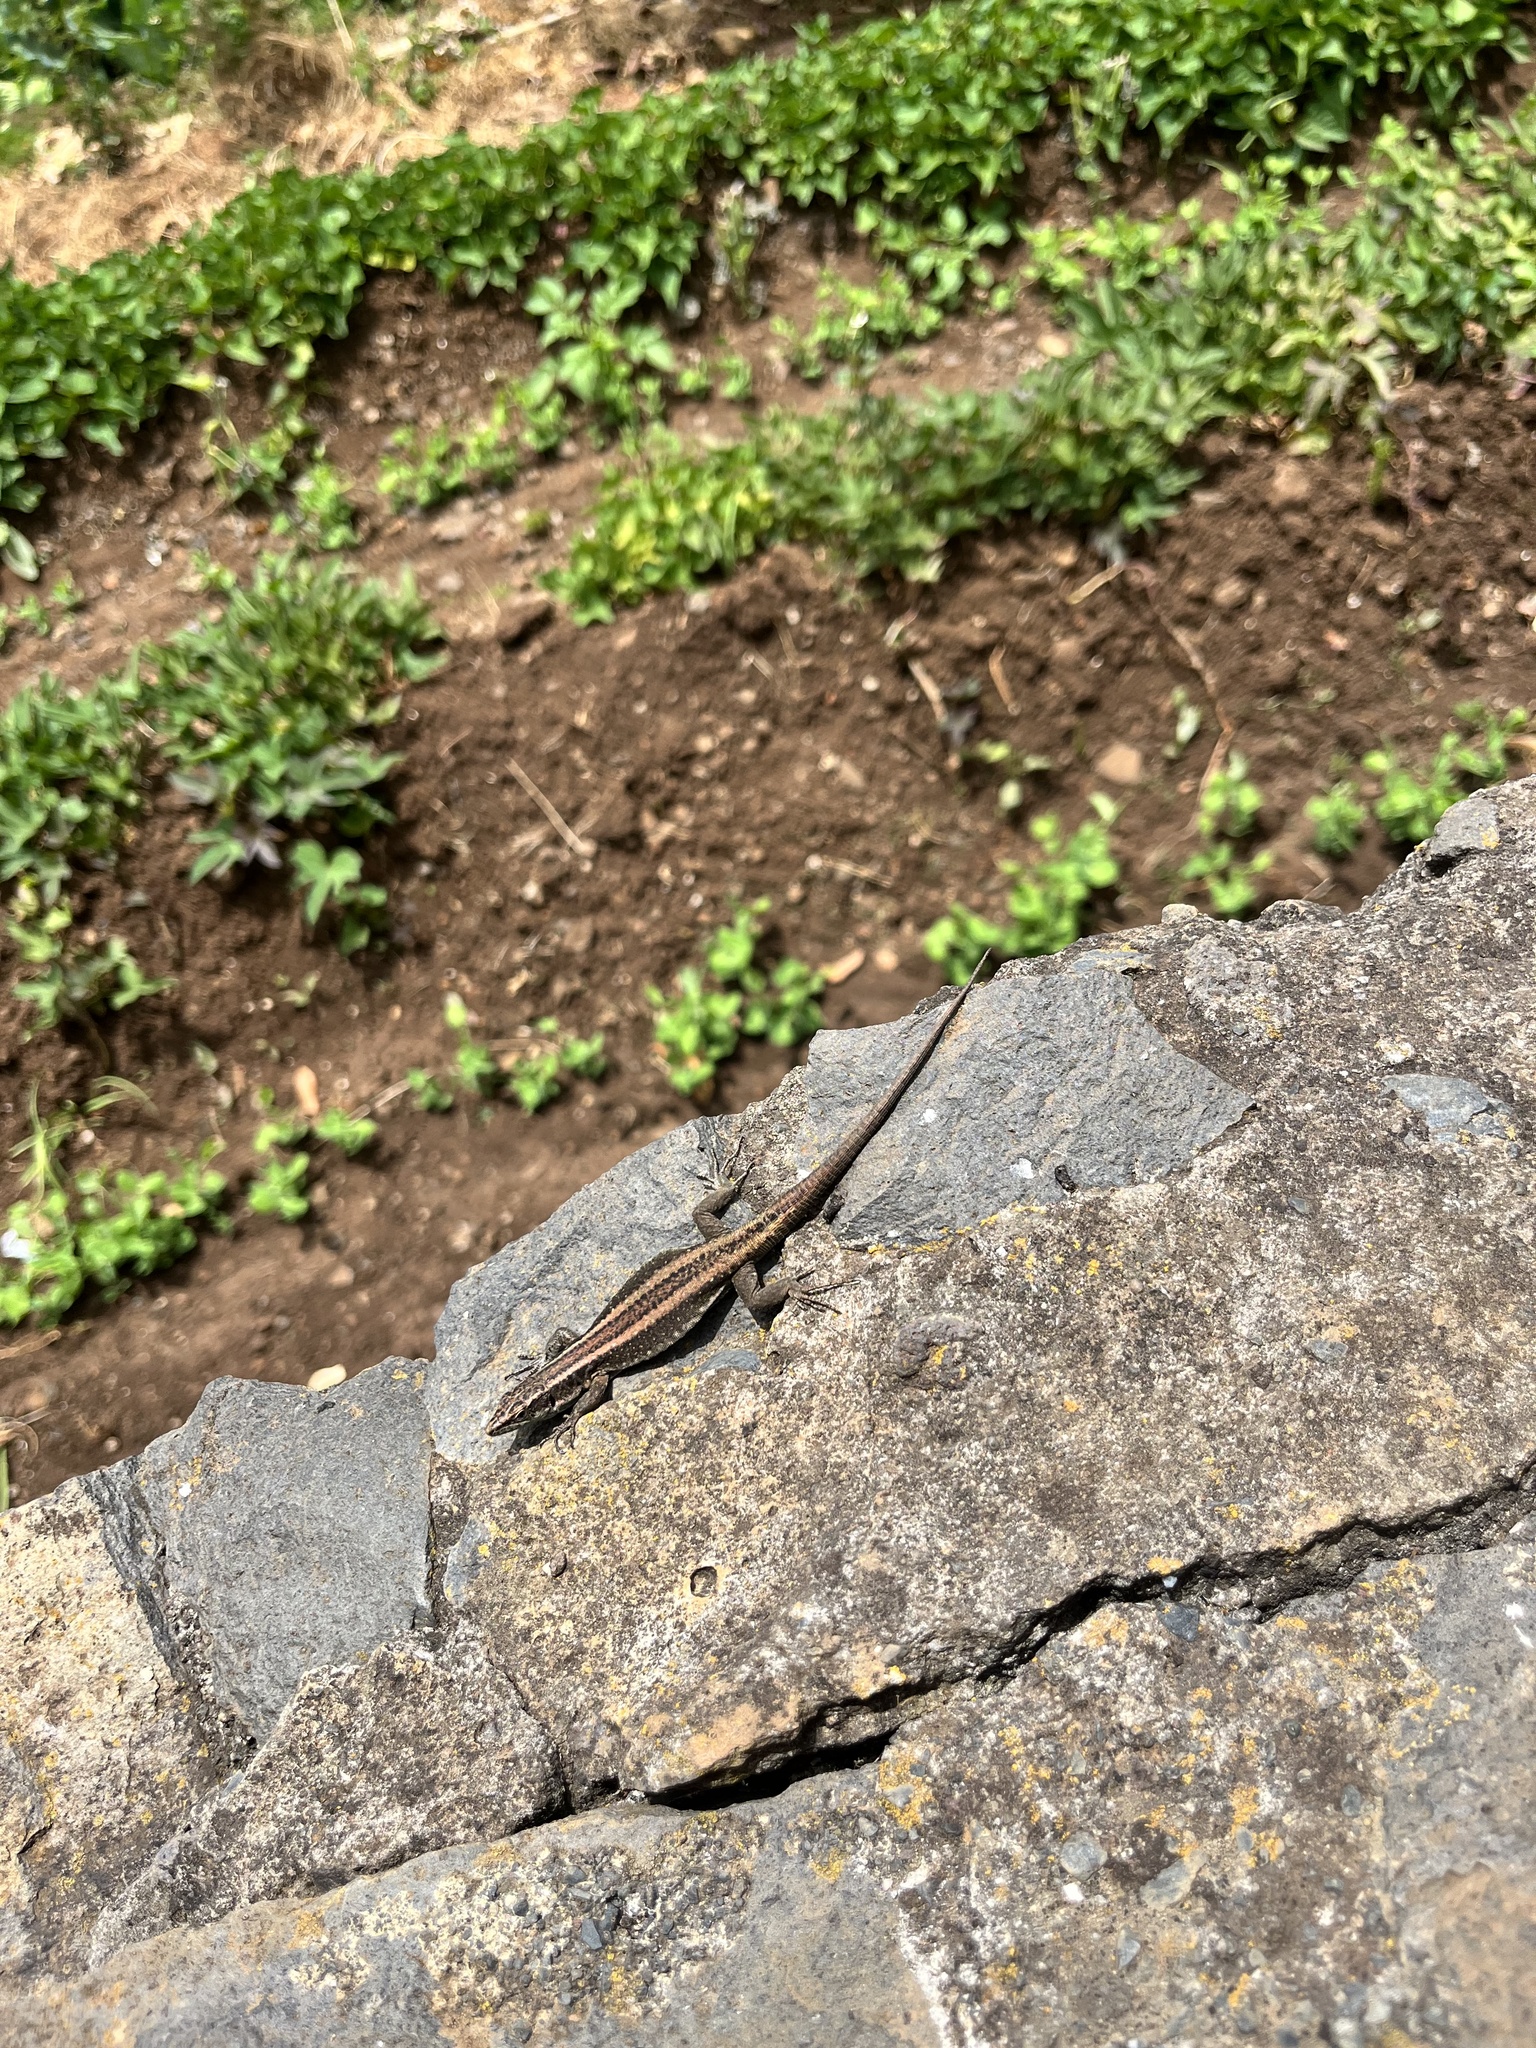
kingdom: Animalia
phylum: Chordata
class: Squamata
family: Lacertidae
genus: Teira
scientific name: Teira dugesii
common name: Madeira lizard
